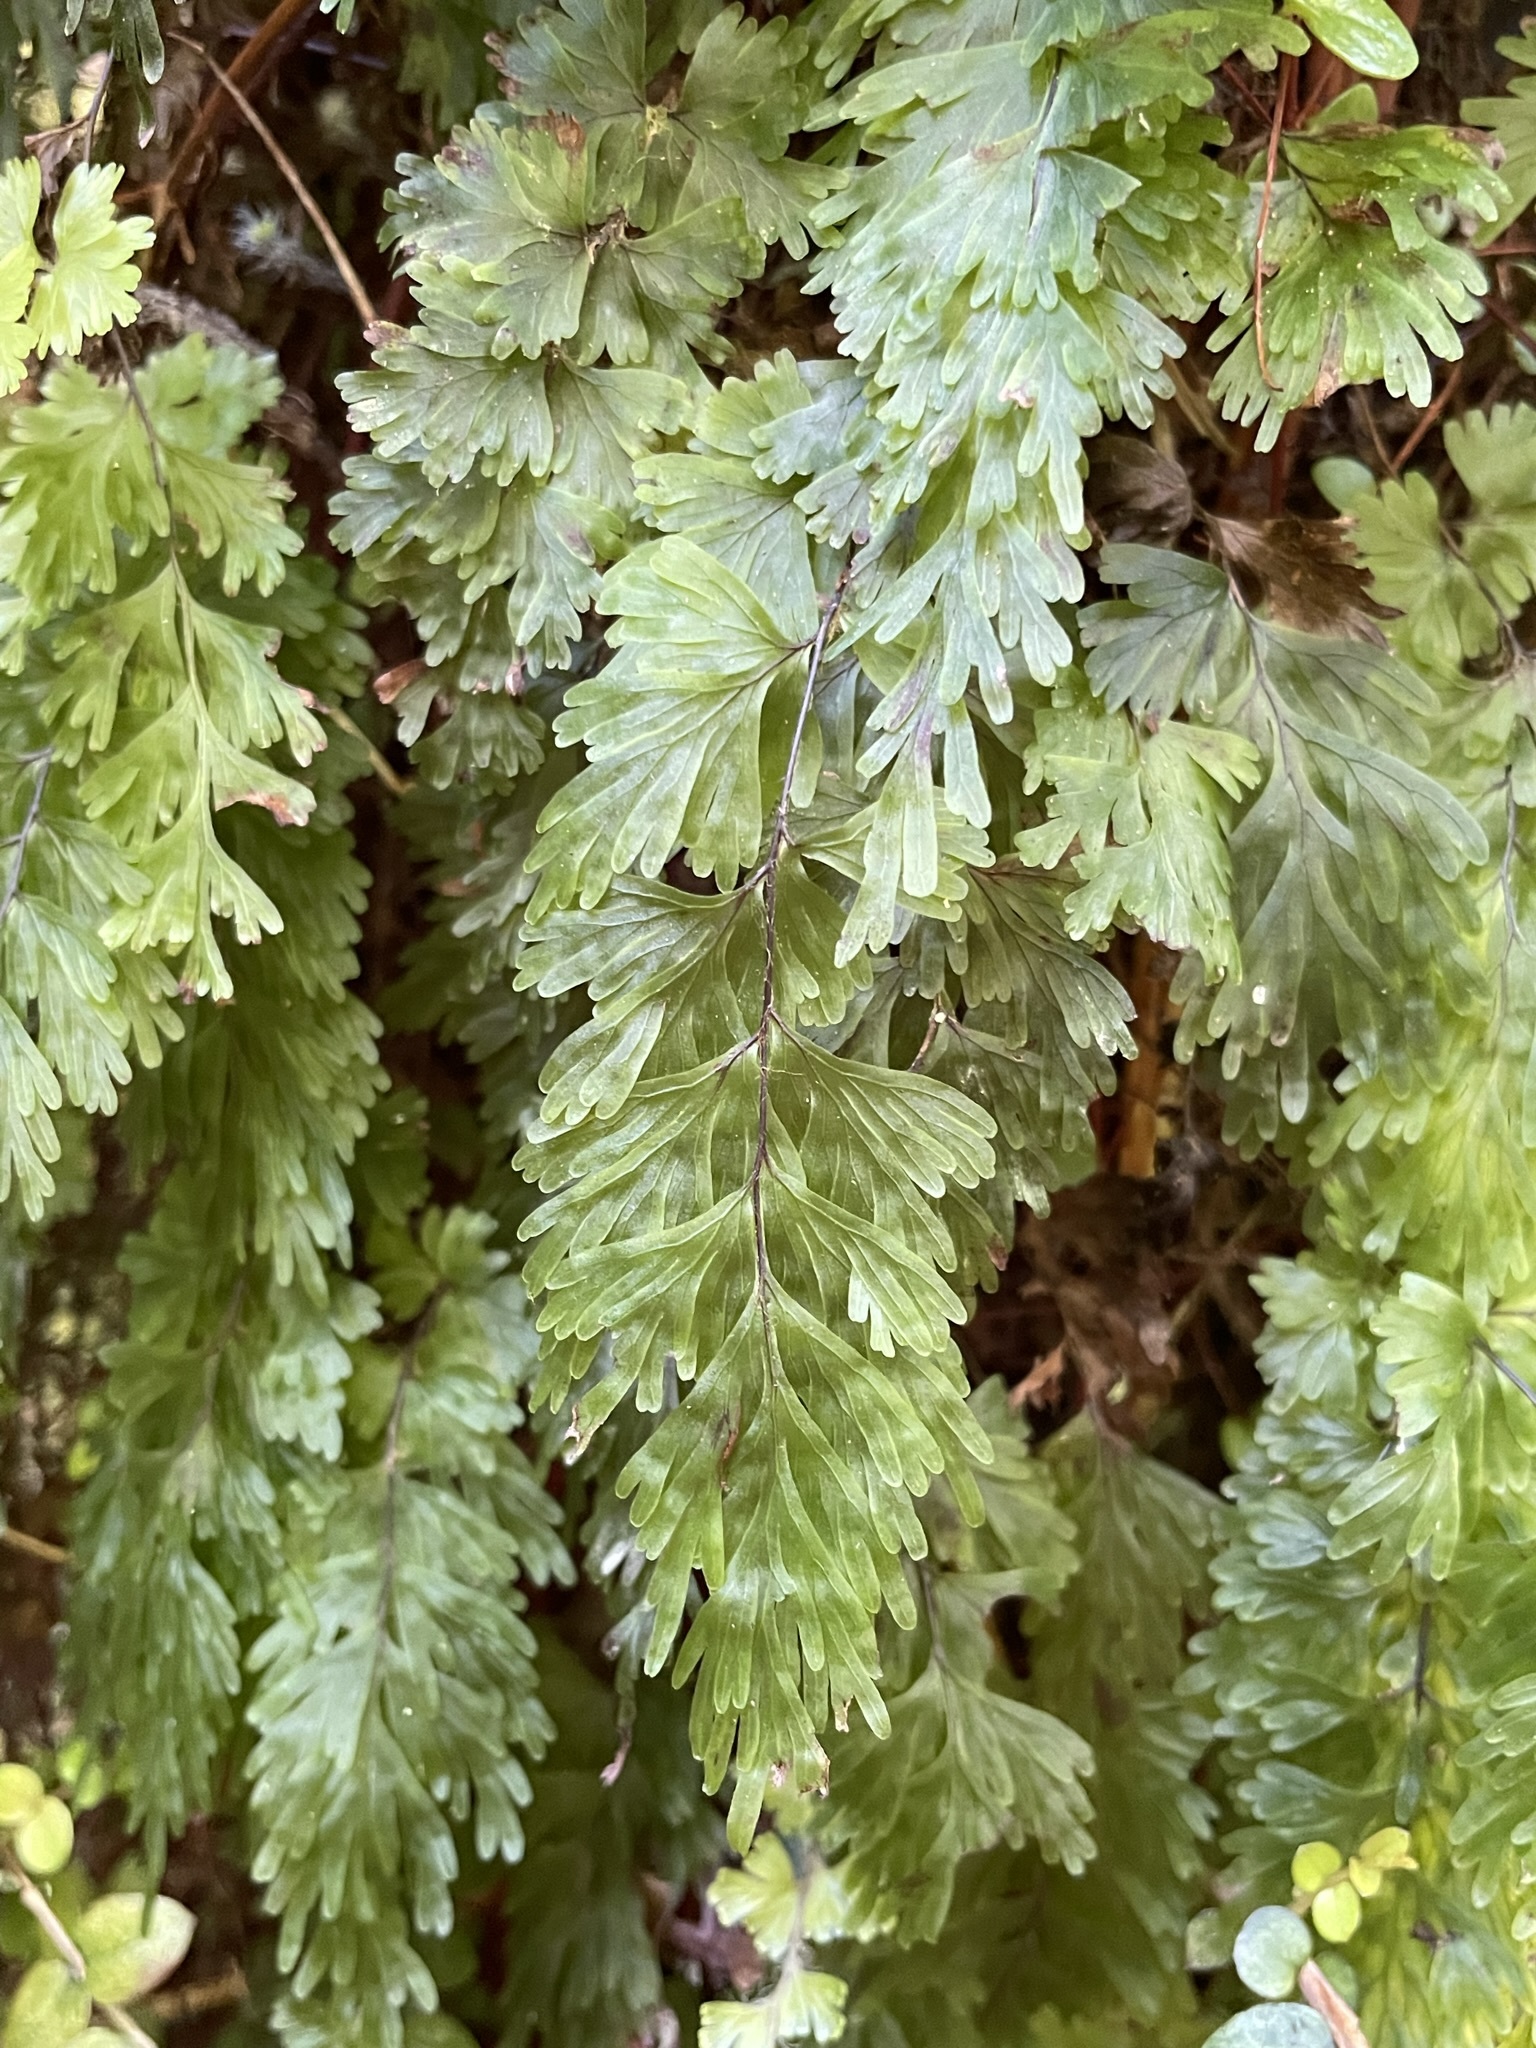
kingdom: Plantae
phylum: Tracheophyta
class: Polypodiopsida
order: Hymenophyllales
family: Hymenophyllaceae
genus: Hymenophyllum
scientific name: Hymenophyllum flabellatum
